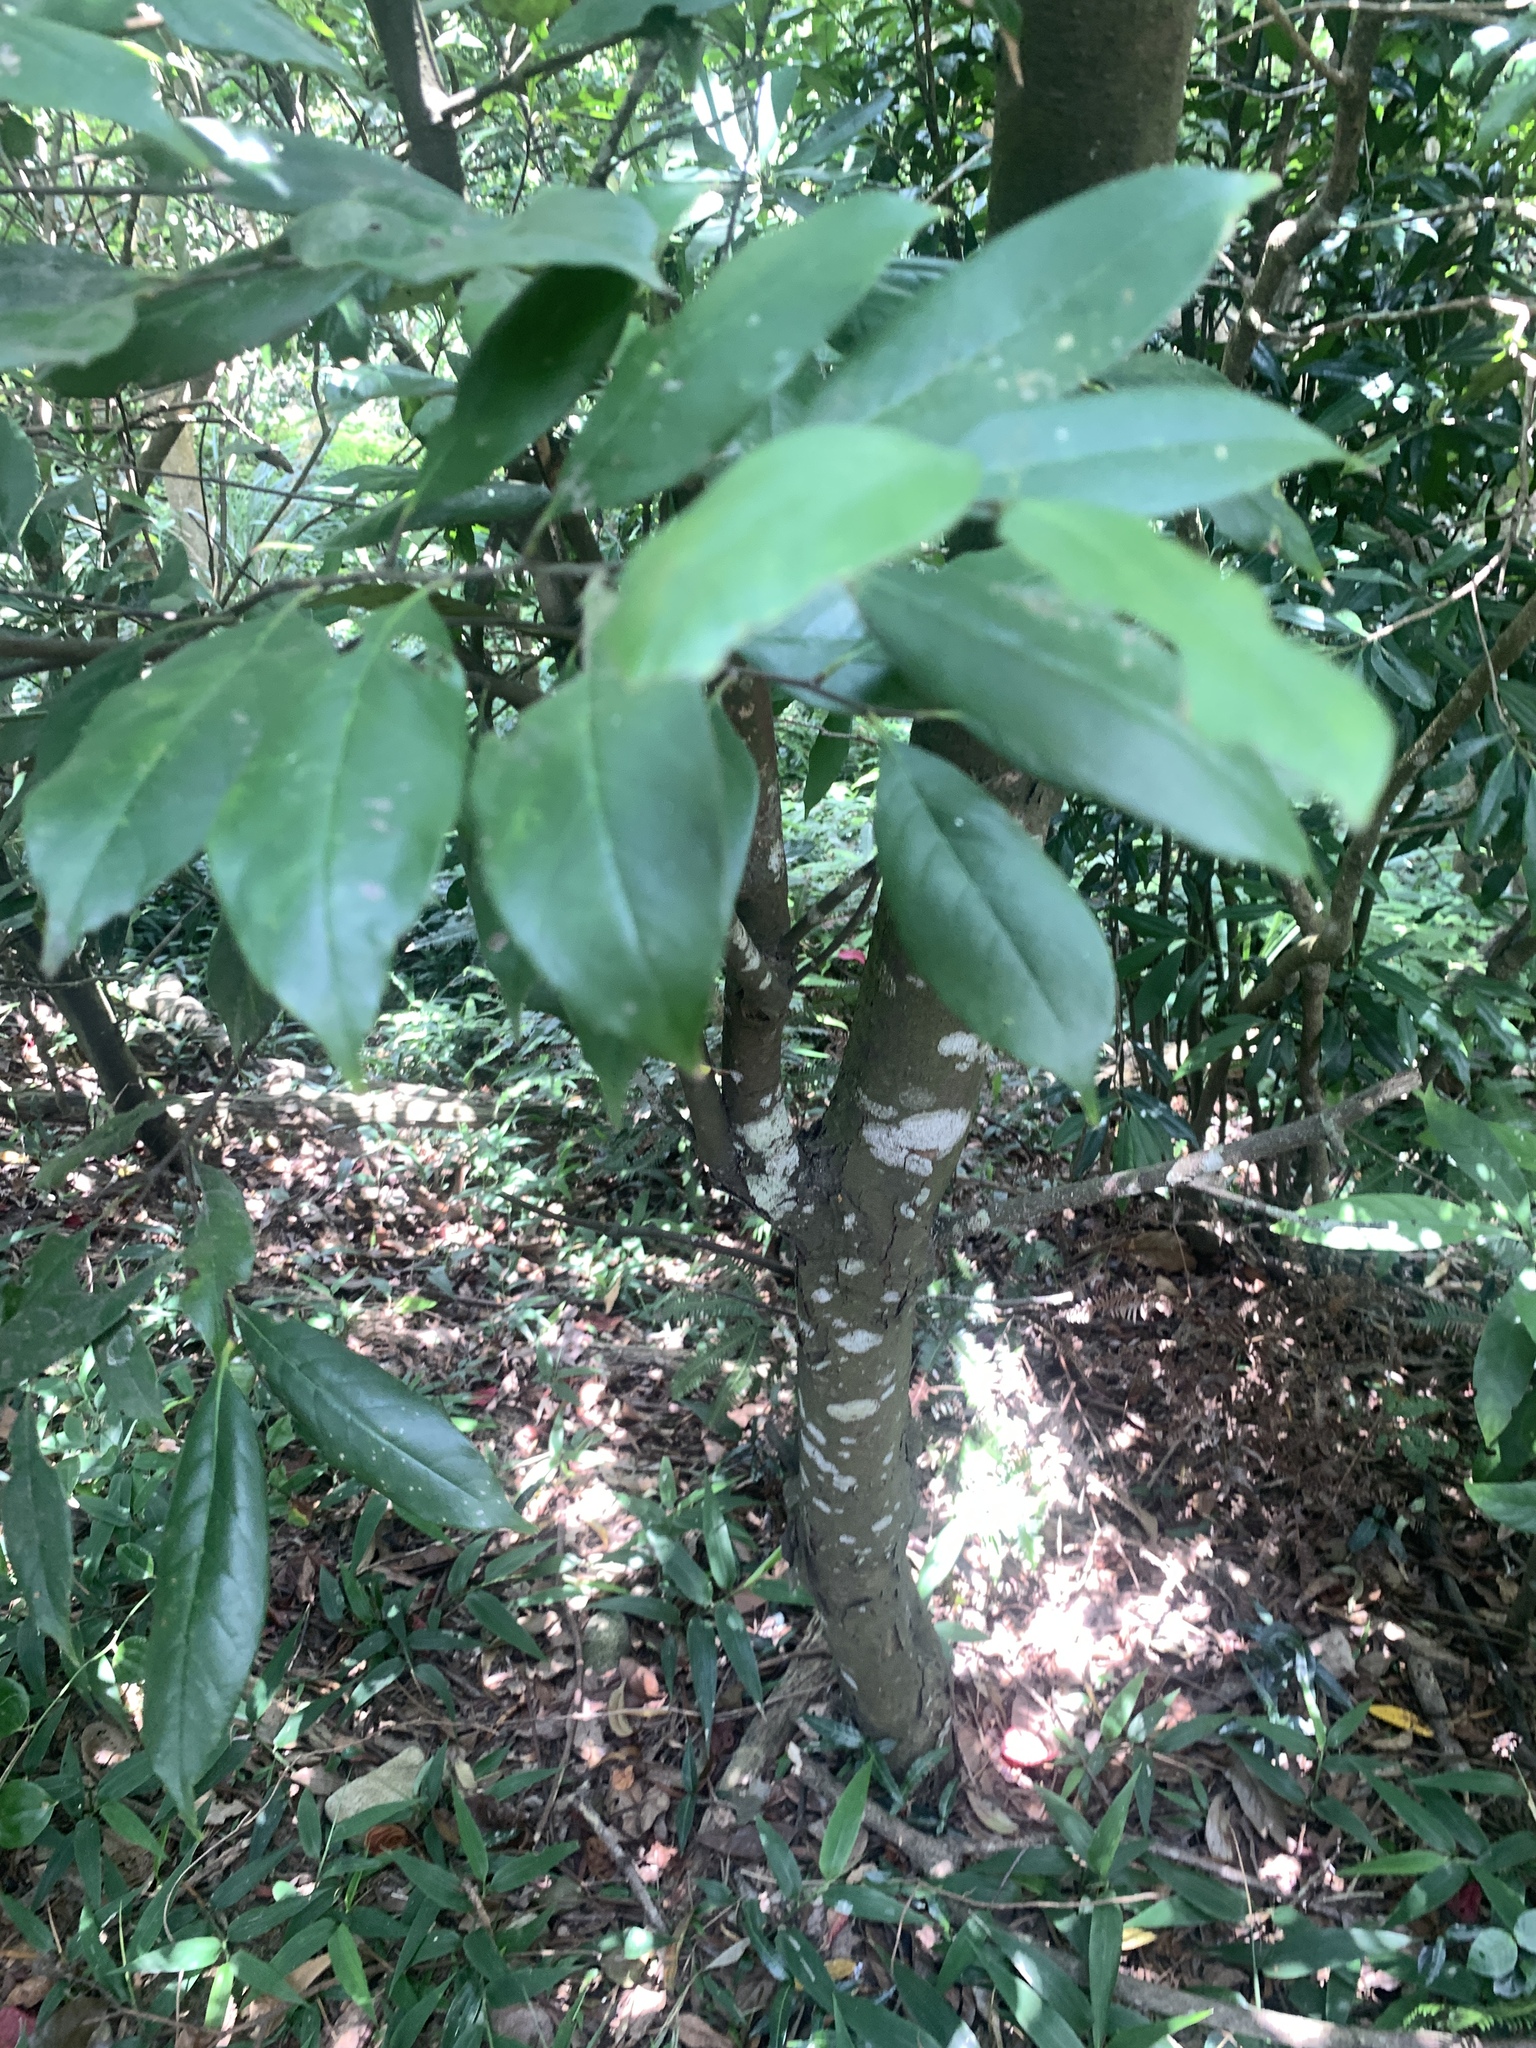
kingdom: Plantae
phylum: Tracheophyta
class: Magnoliopsida
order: Fagales
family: Fagaceae
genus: Castanopsis
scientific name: Castanopsis kawakamii
